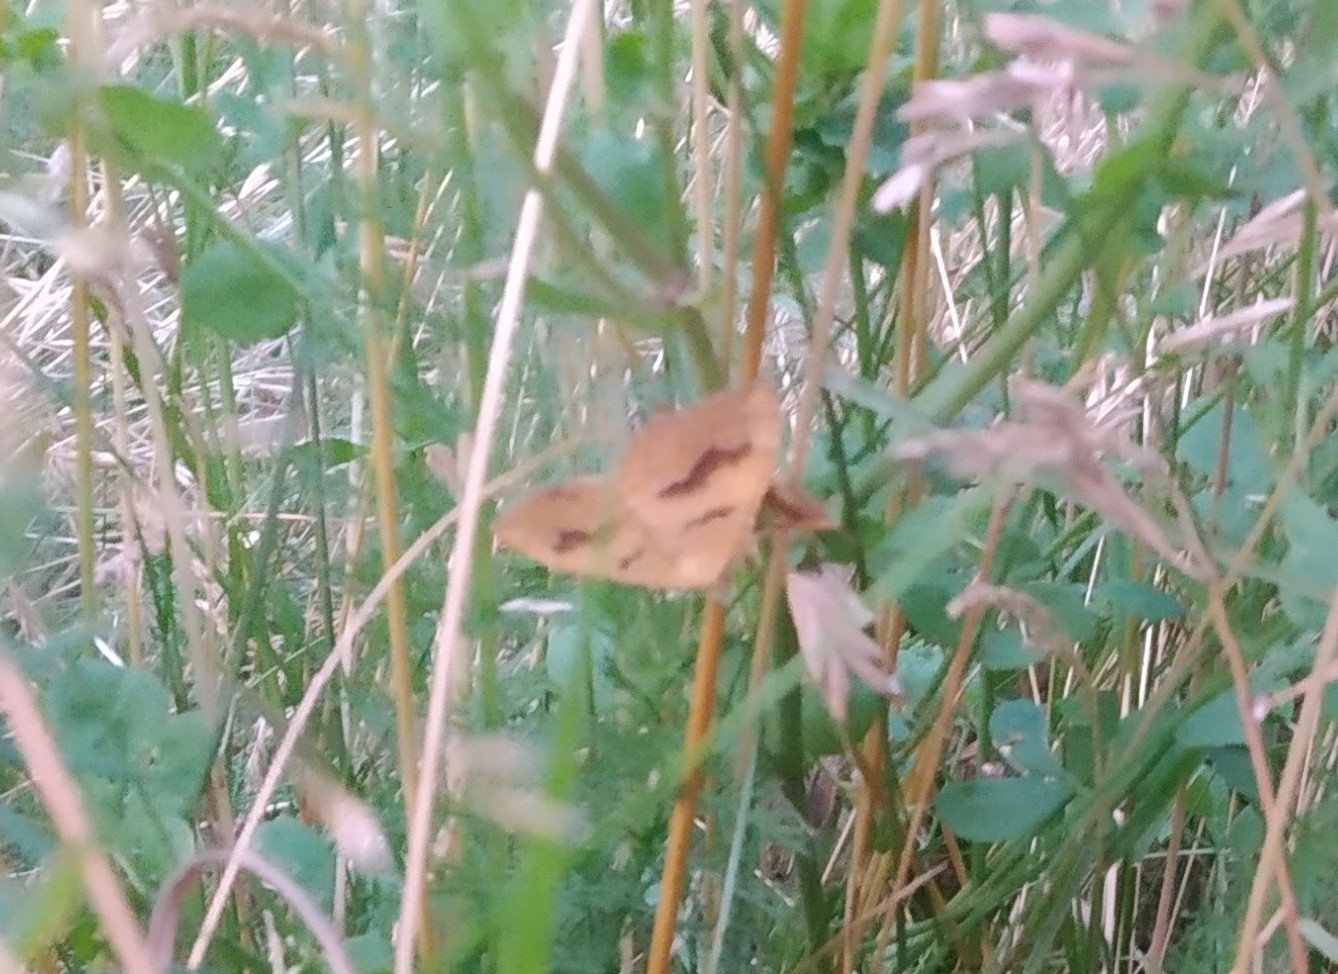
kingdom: Animalia
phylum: Arthropoda
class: Insecta
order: Lepidoptera
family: Geometridae
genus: Camptogramma
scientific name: Camptogramma bilineata
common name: Yellow shell
